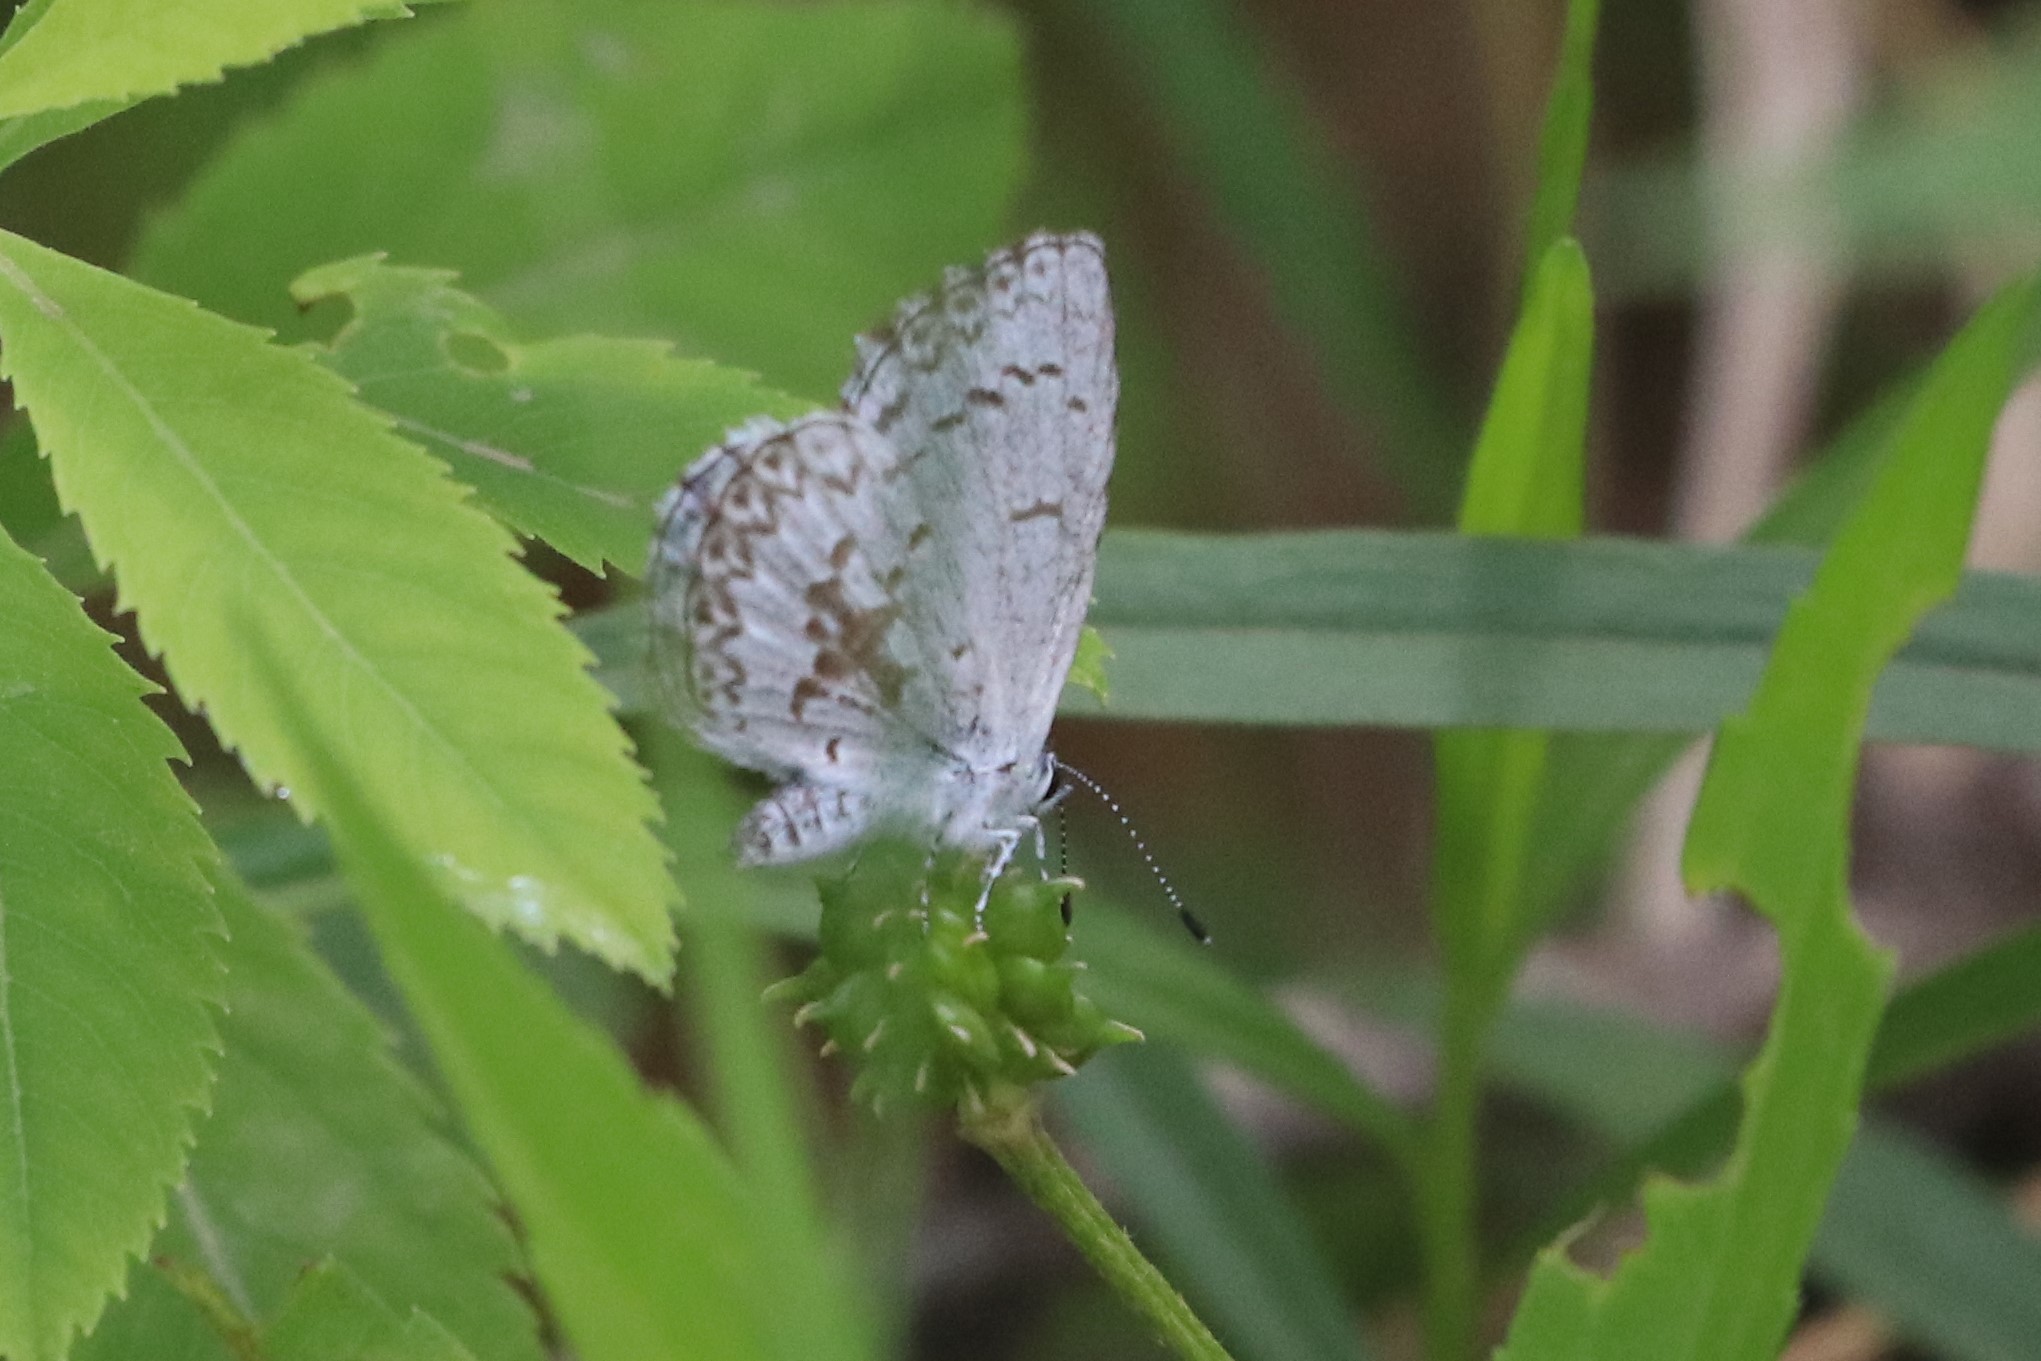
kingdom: Animalia
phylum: Arthropoda
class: Insecta
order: Lepidoptera
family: Lycaenidae
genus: Celastrina
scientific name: Celastrina lucia
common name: Lucia azure
